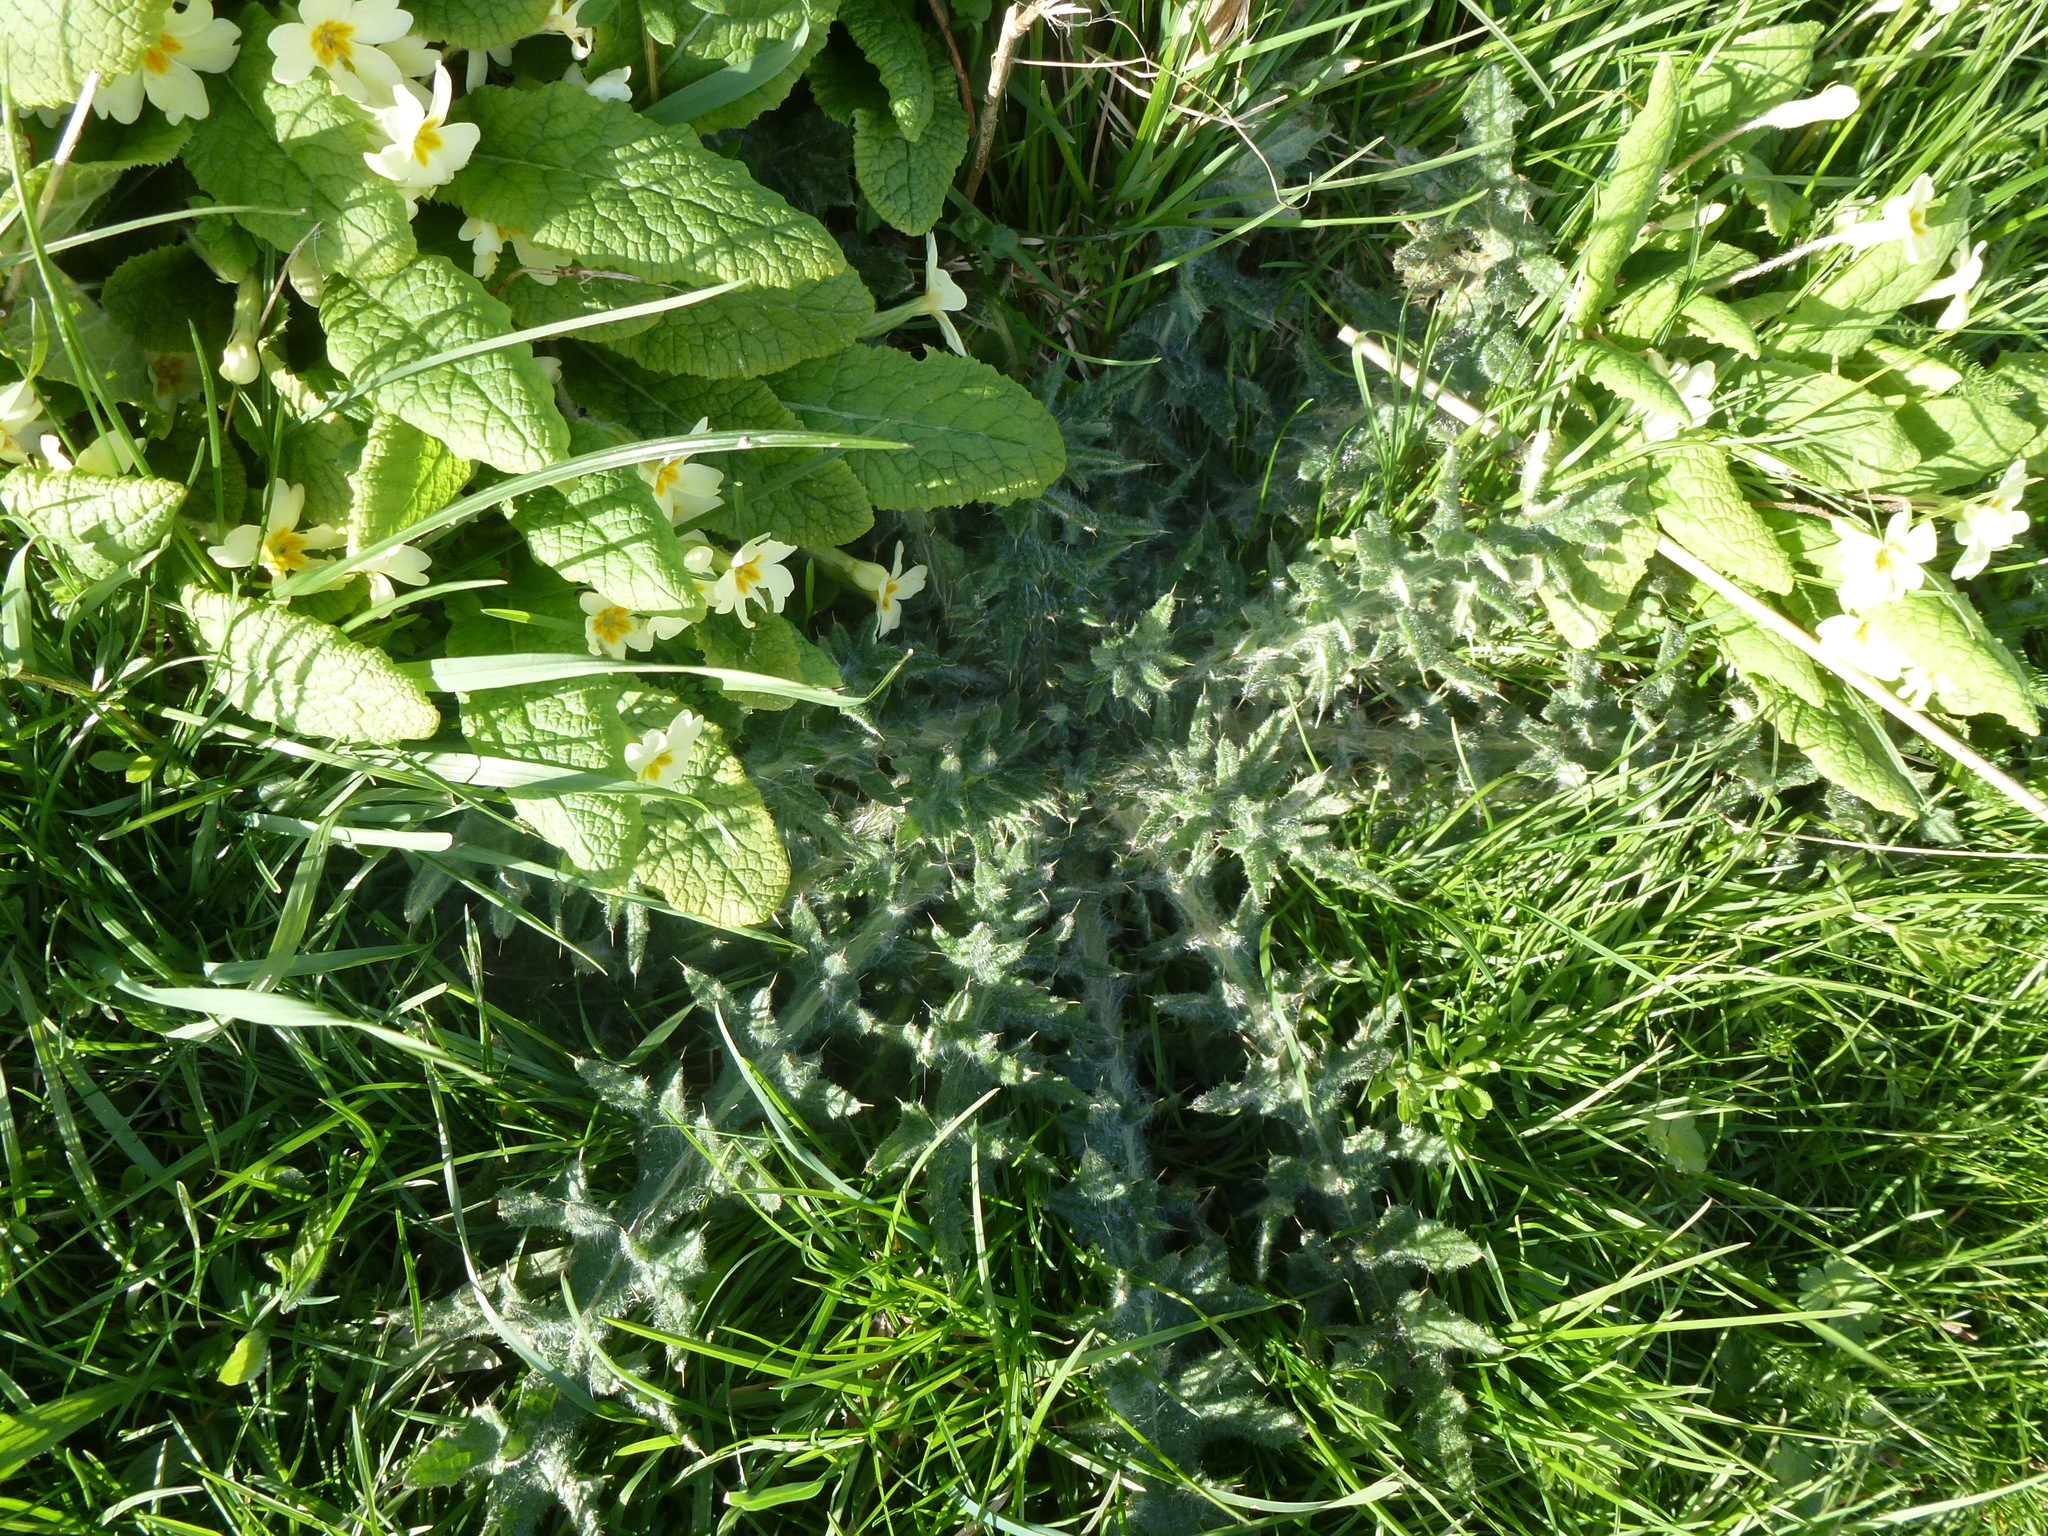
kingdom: Plantae
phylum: Tracheophyta
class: Magnoliopsida
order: Asterales
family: Asteraceae
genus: Cirsium
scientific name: Cirsium vulgare
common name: Bull thistle
